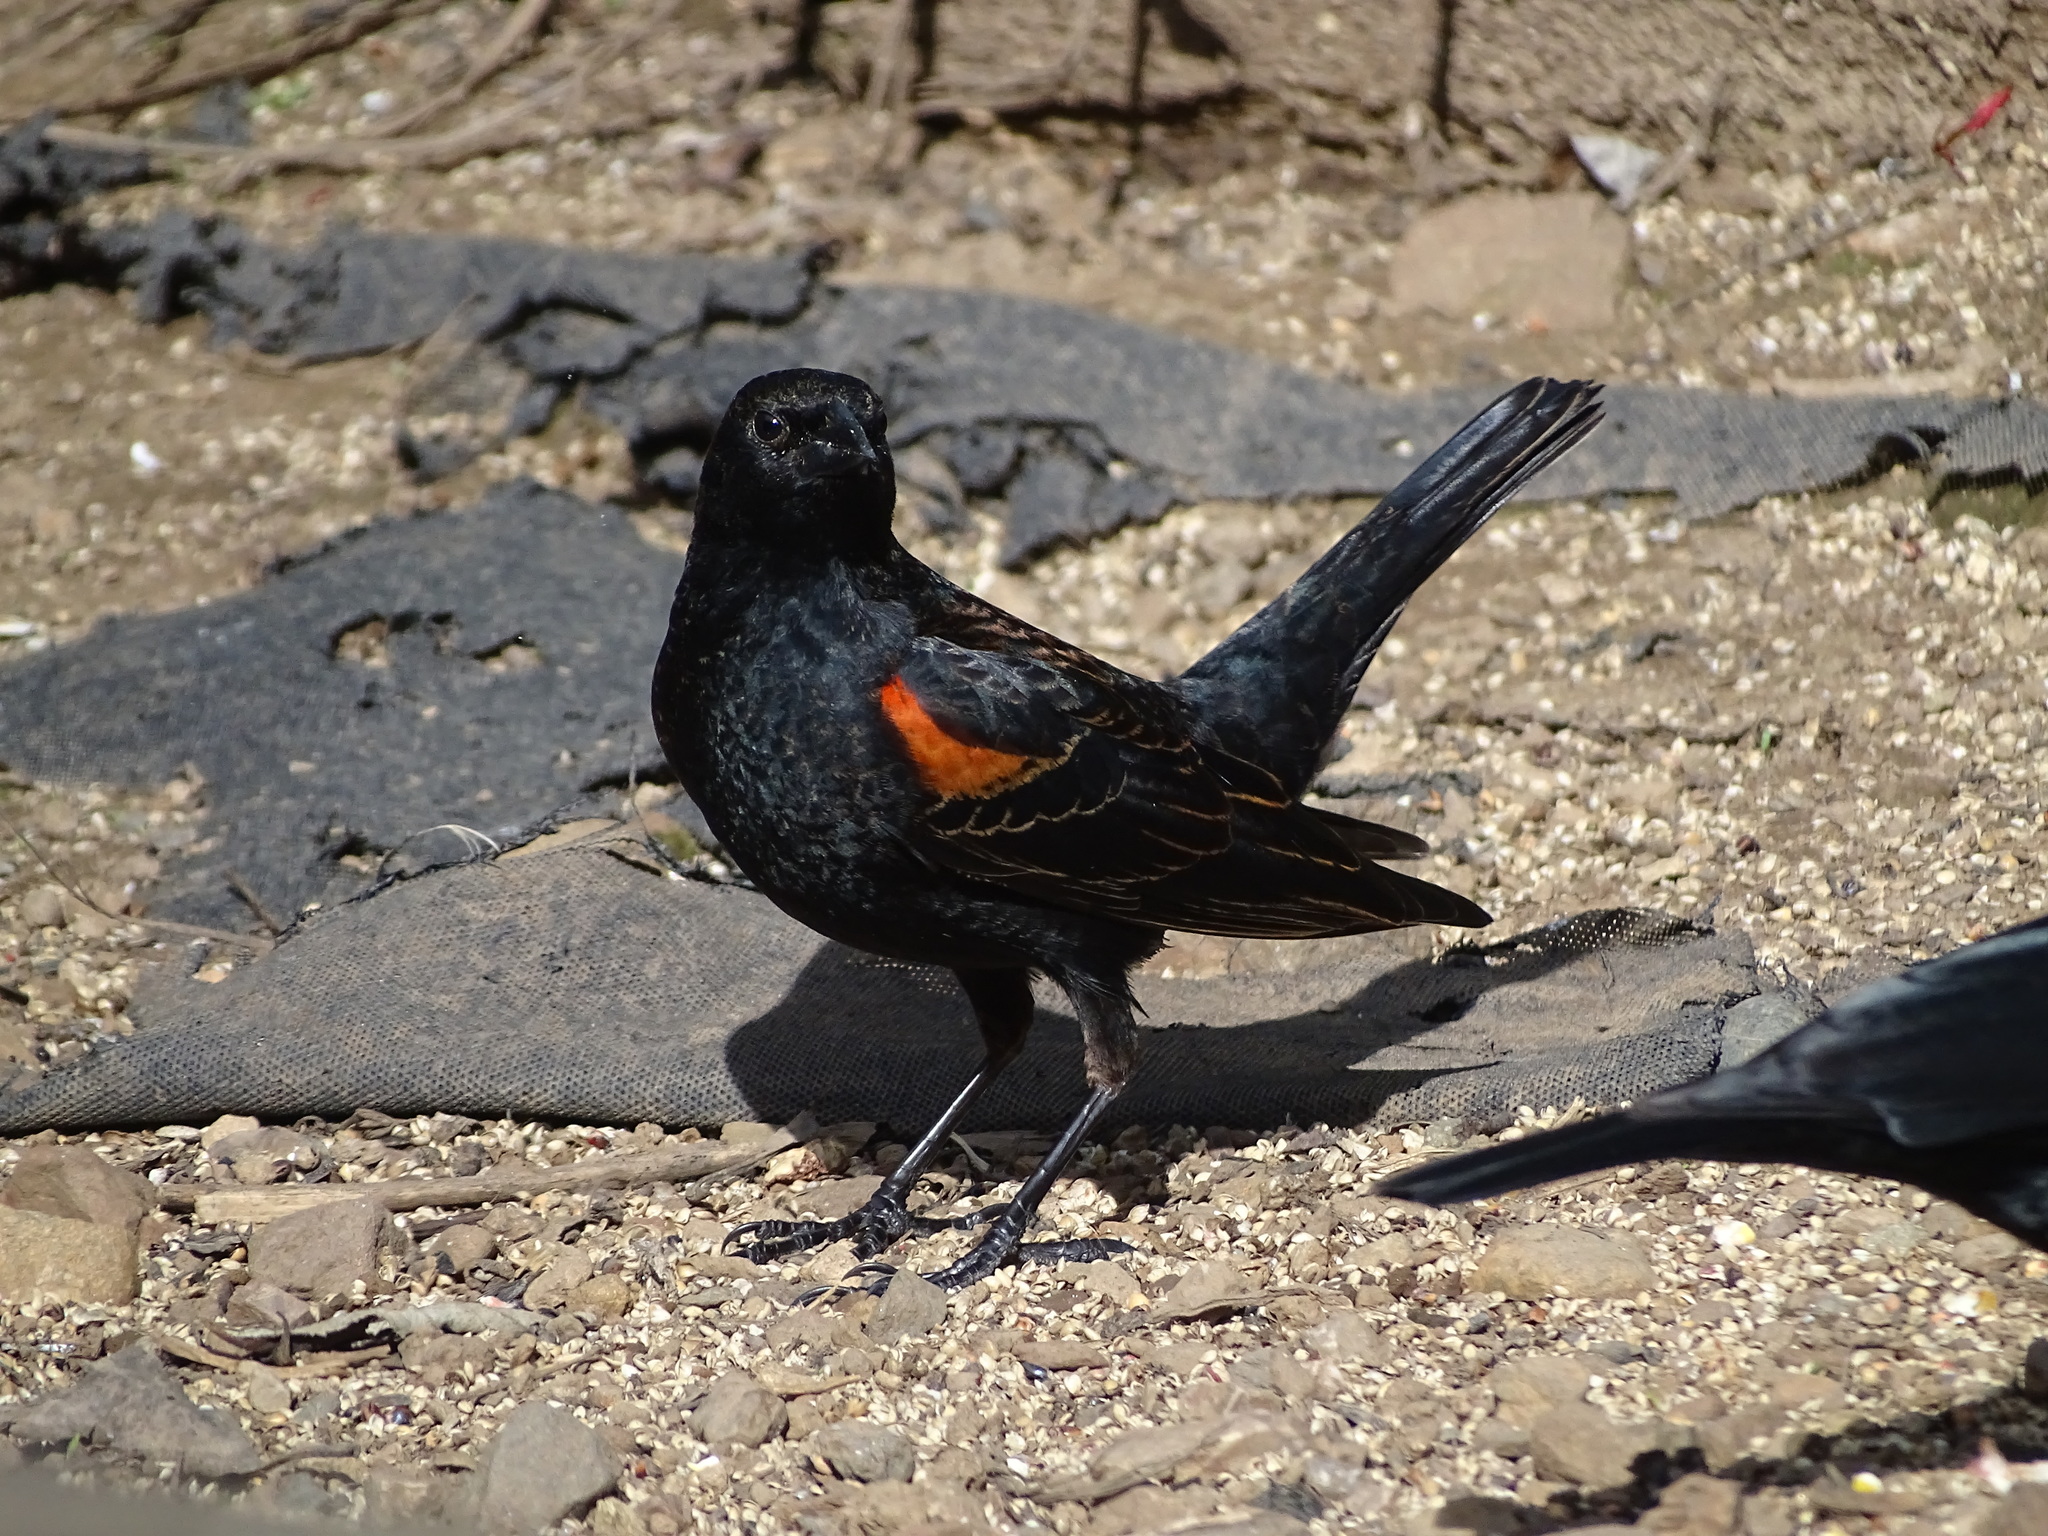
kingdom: Animalia
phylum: Chordata
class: Aves
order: Passeriformes
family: Icteridae
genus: Agelaius
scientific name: Agelaius phoeniceus
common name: Red-winged blackbird
